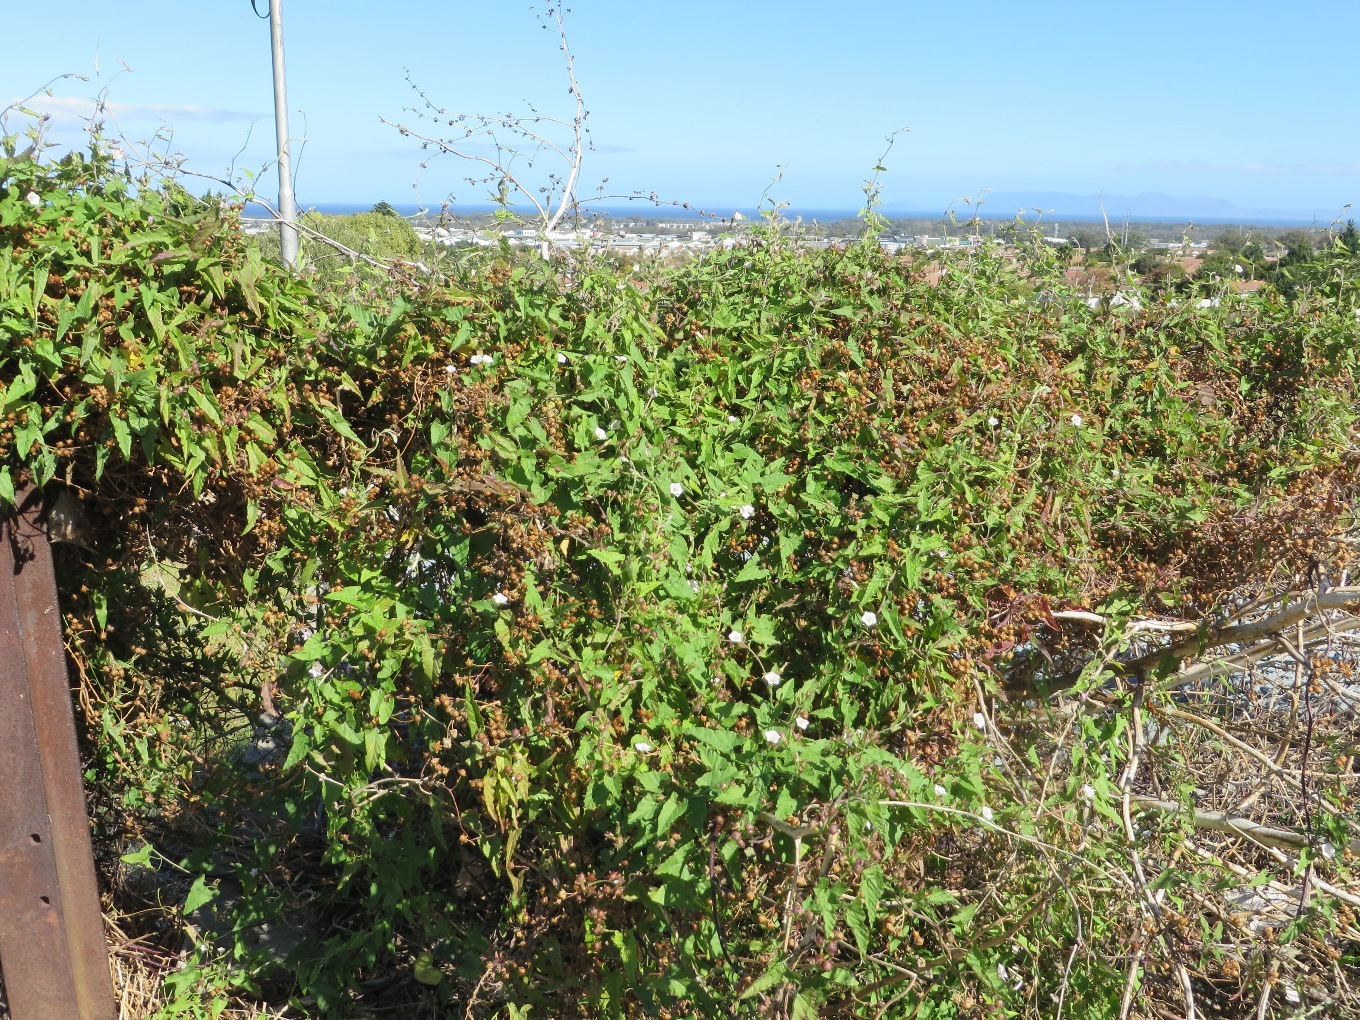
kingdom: Plantae
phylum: Tracheophyta
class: Magnoliopsida
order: Solanales
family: Convolvulaceae
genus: Convolvulus
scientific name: Convolvulus farinosus
